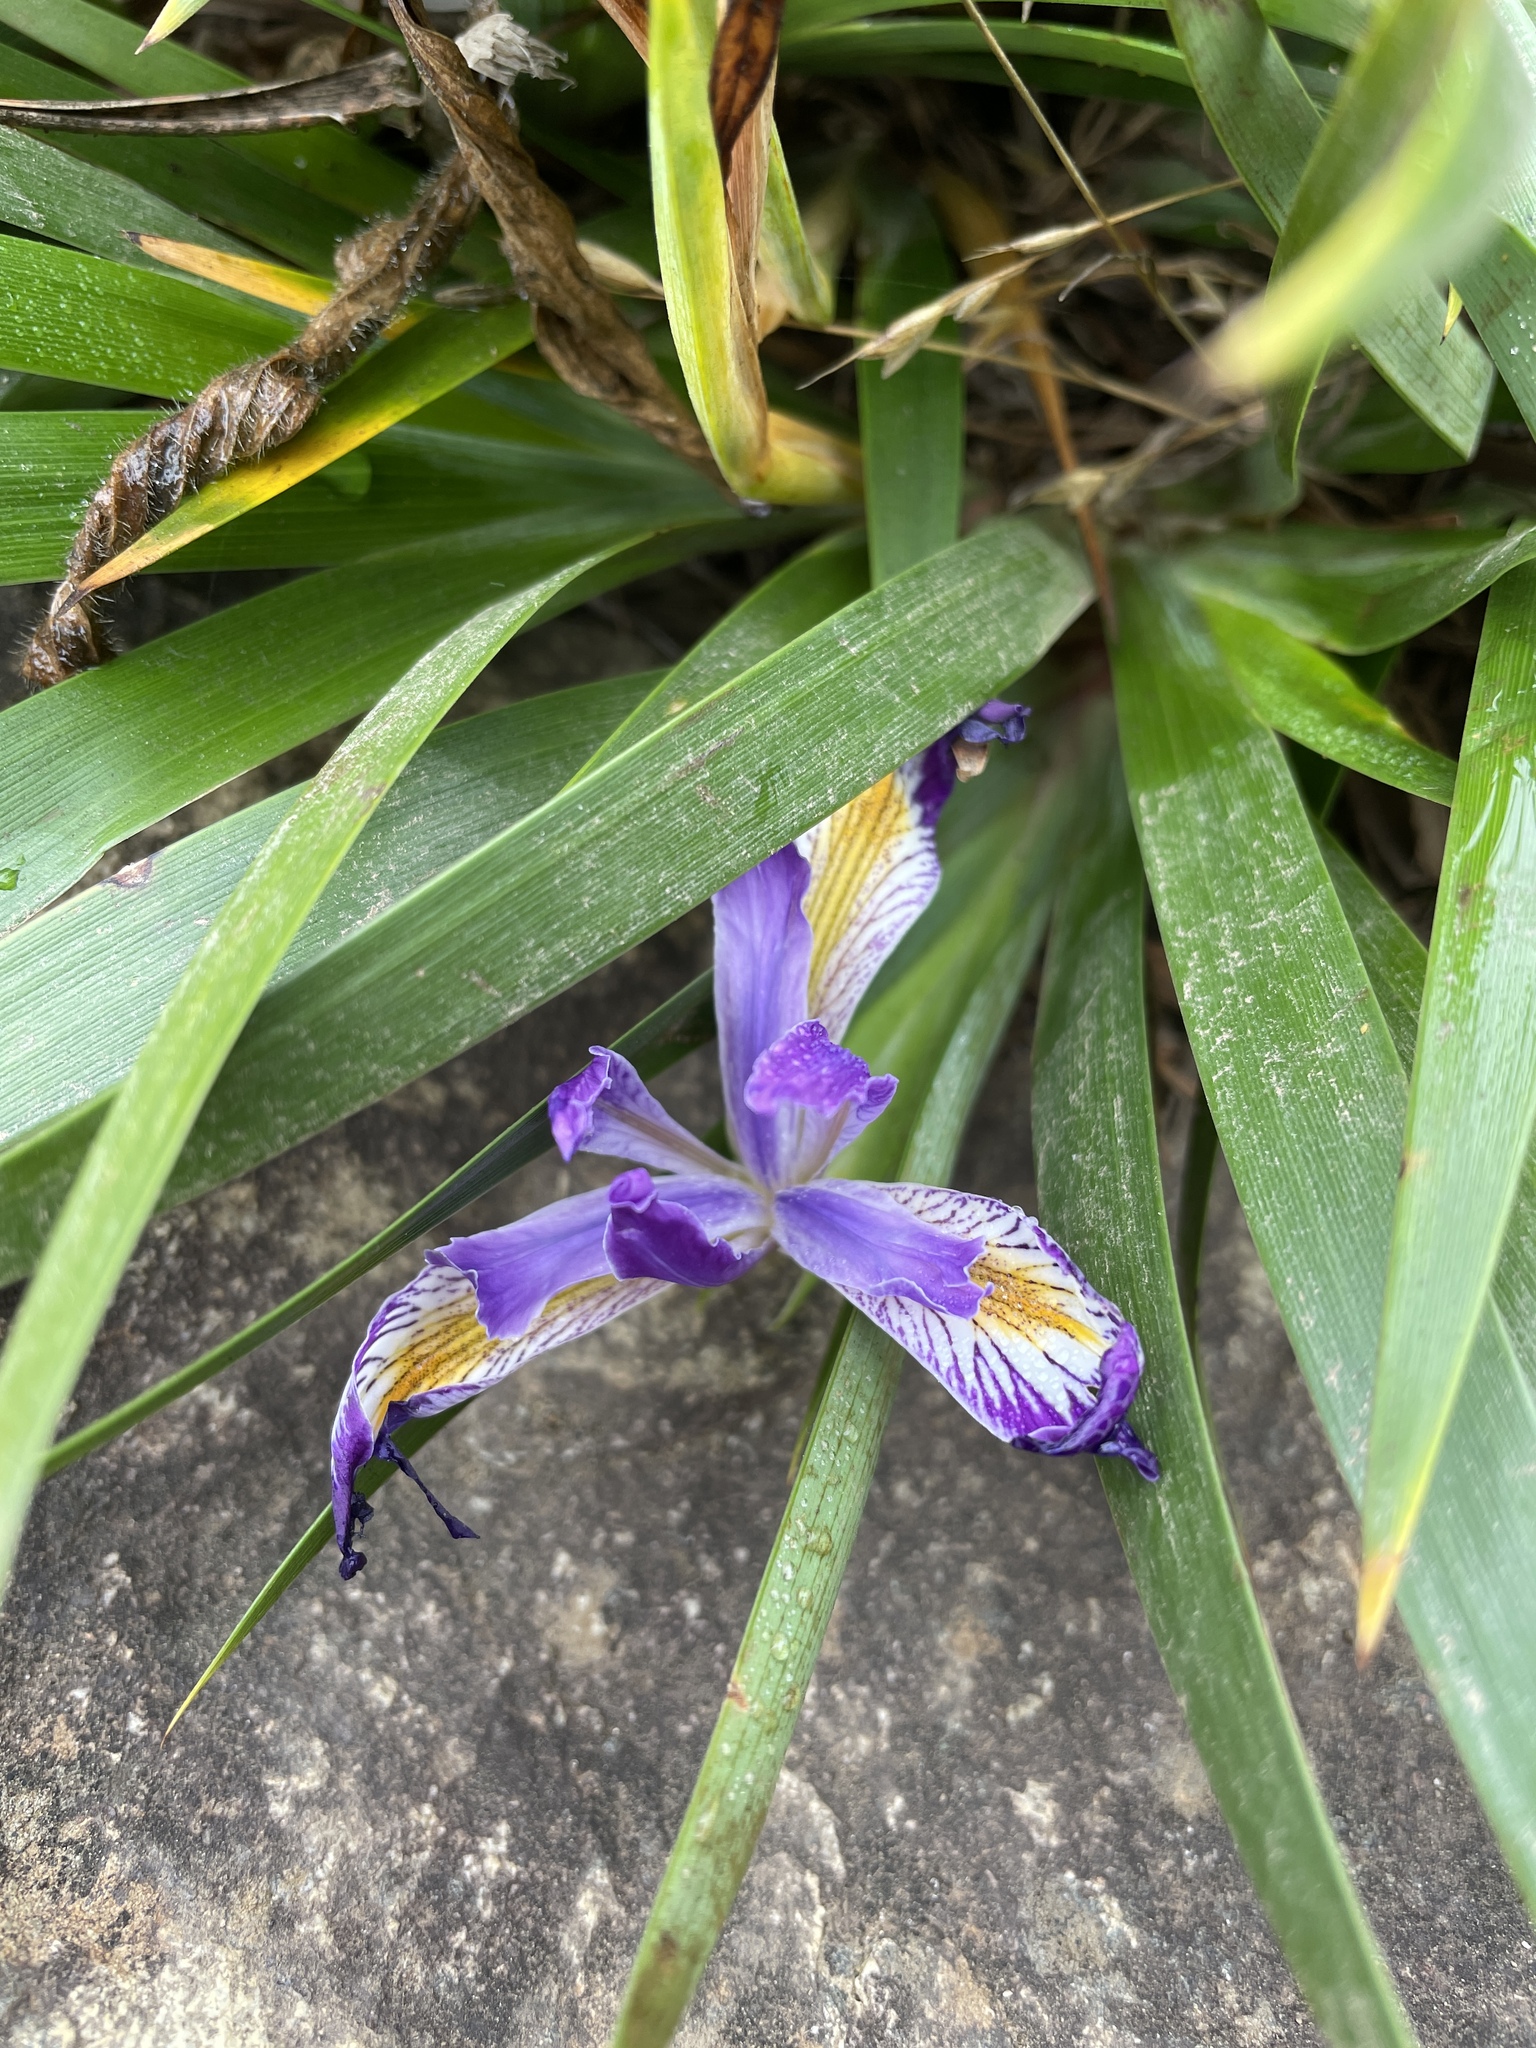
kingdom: Plantae
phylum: Tracheophyta
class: Liliopsida
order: Asparagales
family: Iridaceae
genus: Iris
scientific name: Iris douglasiana
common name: Marin iris
